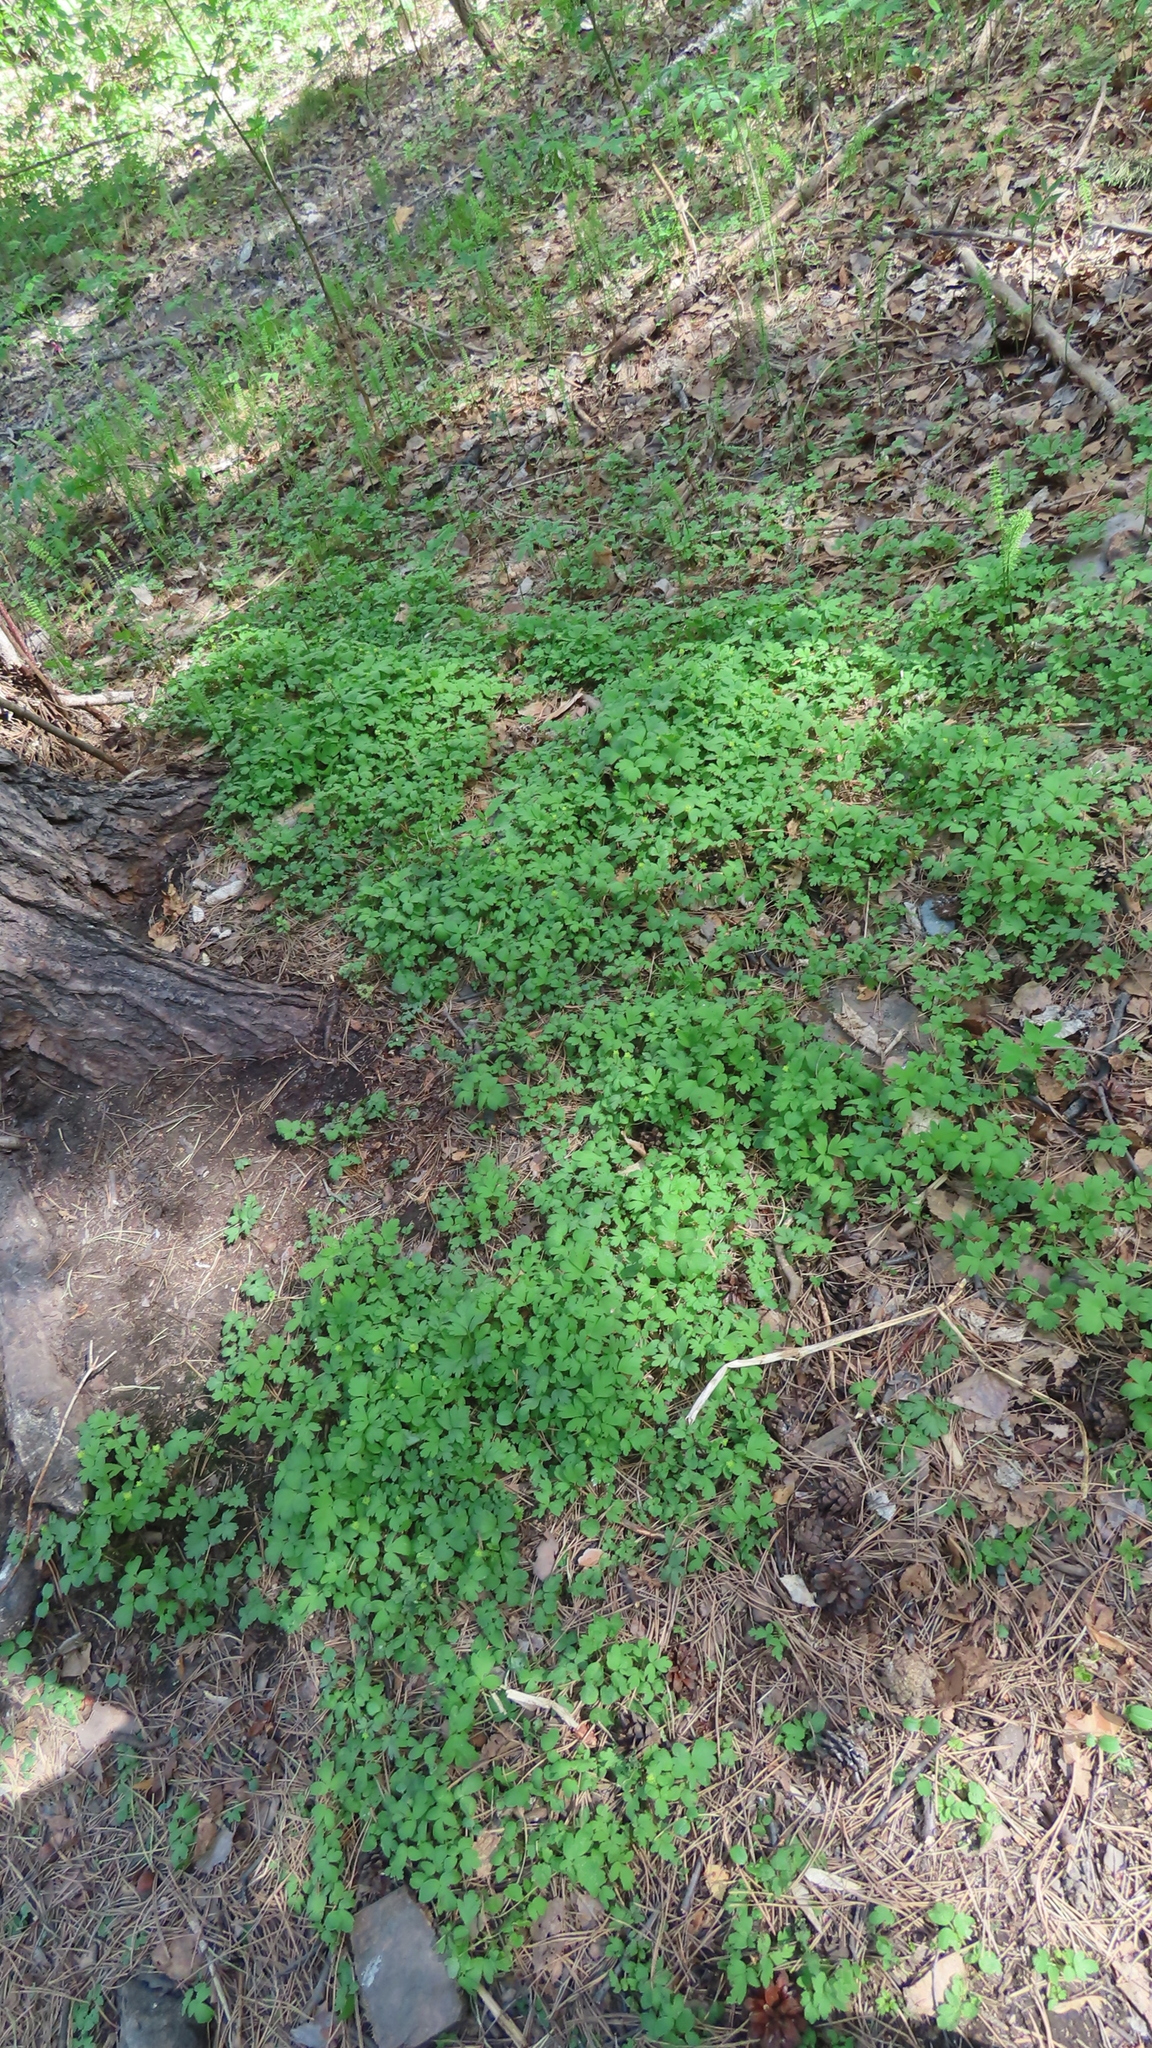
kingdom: Plantae
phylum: Tracheophyta
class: Magnoliopsida
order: Dipsacales
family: Viburnaceae
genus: Adoxa
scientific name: Adoxa moschatellina
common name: Moschatel
